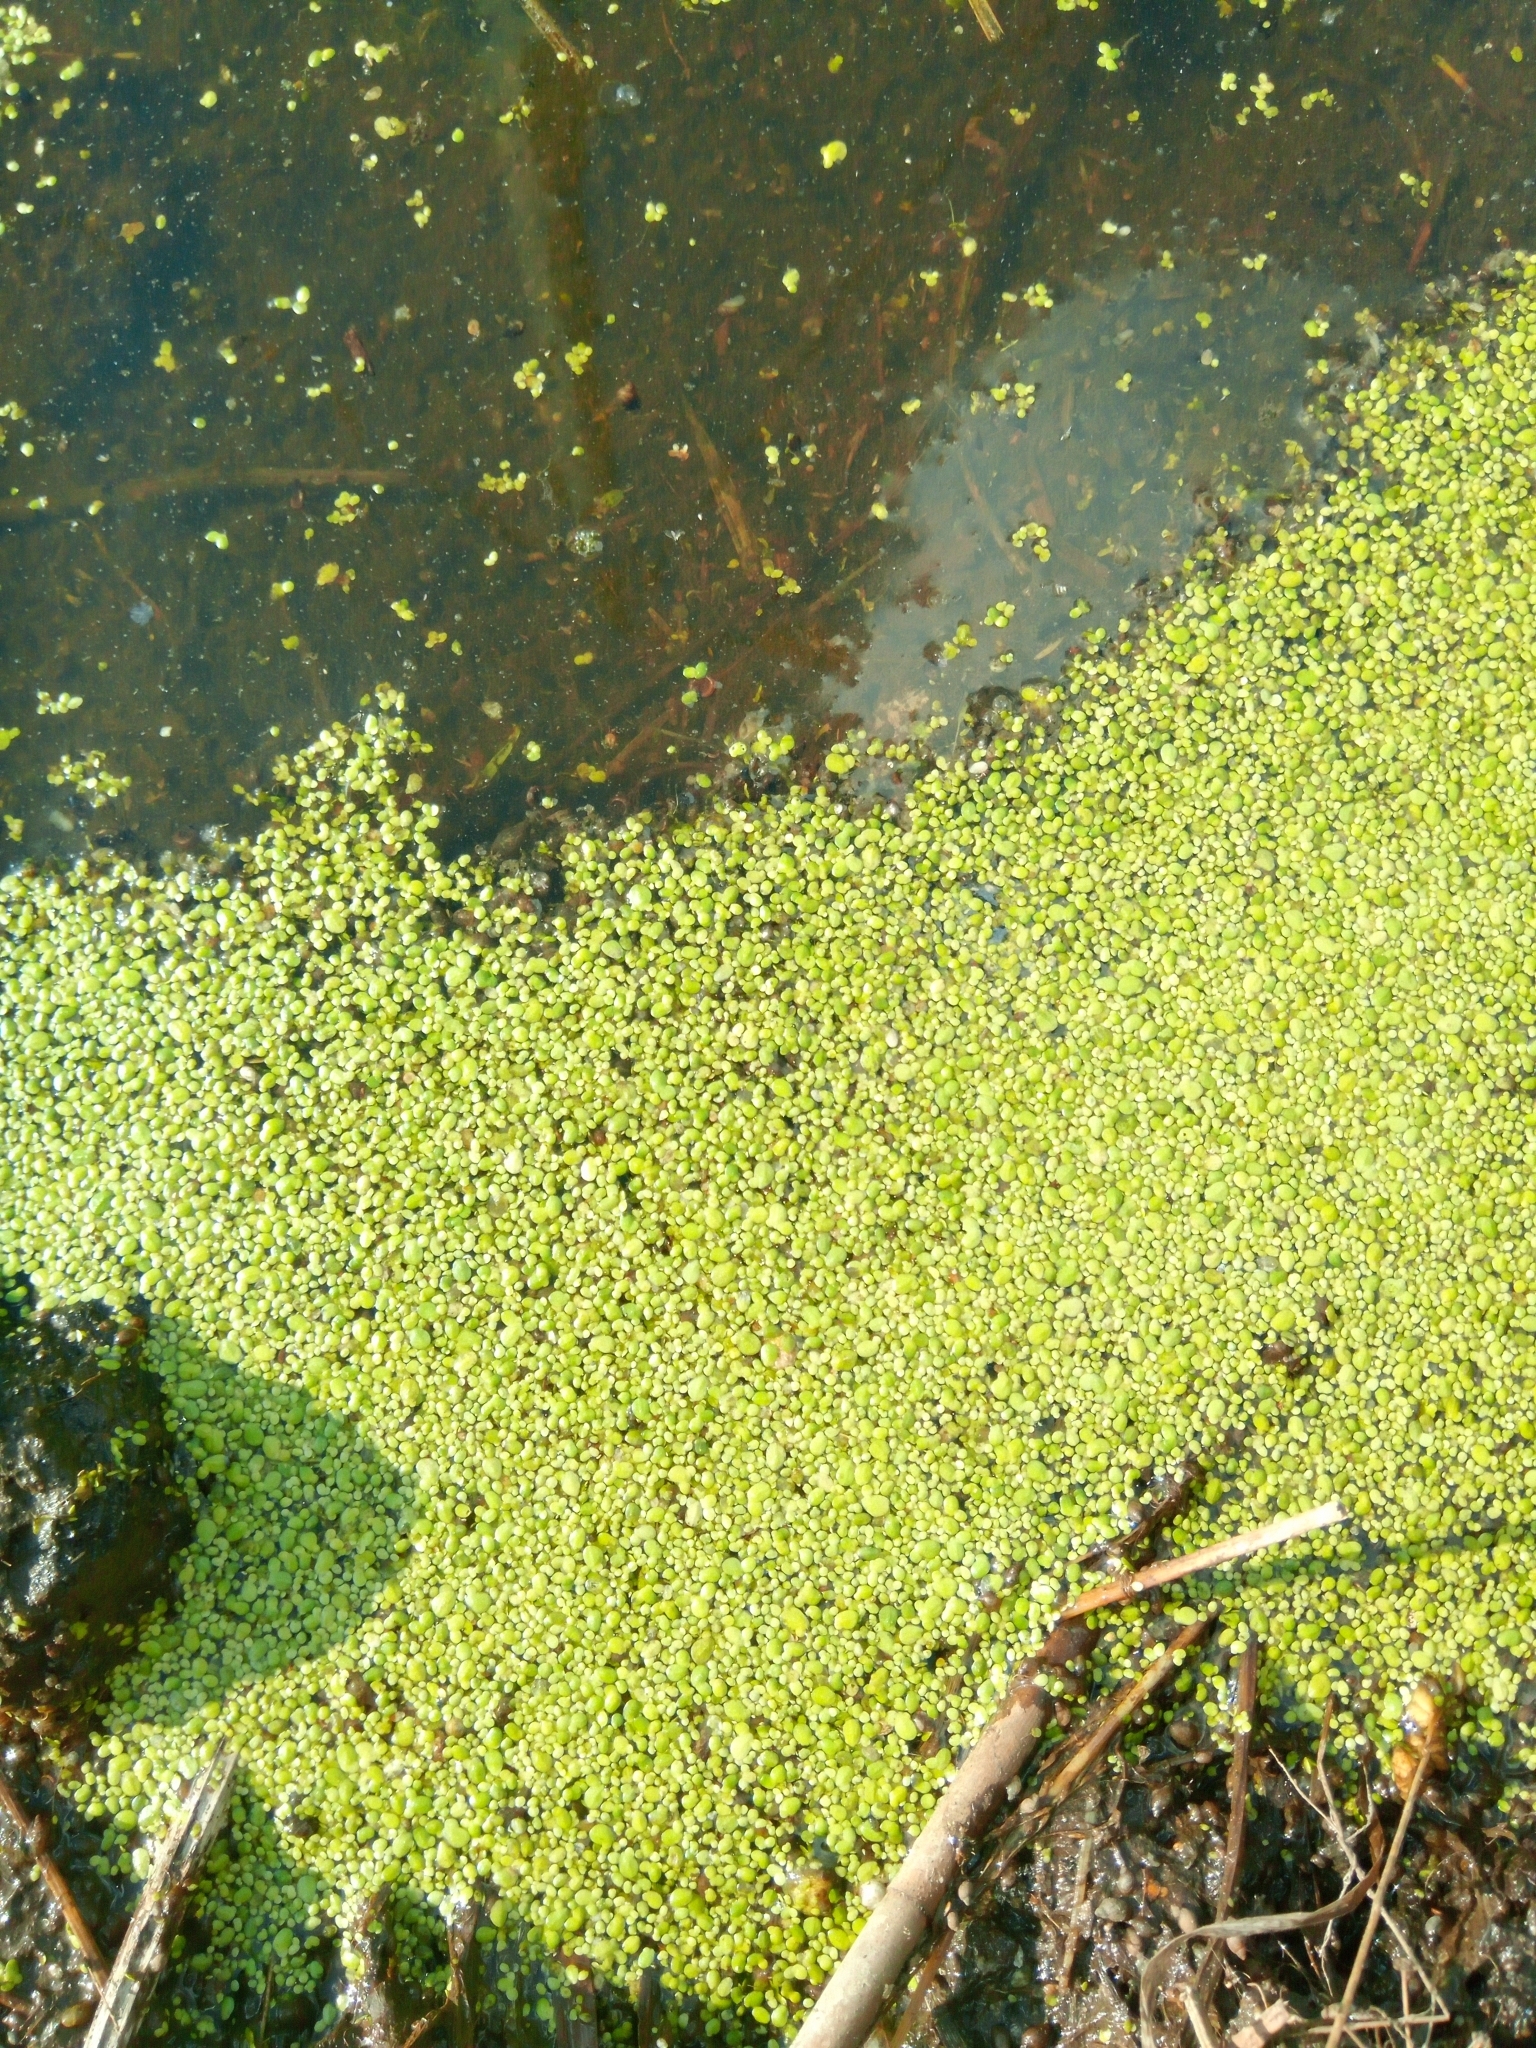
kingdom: Plantae
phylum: Tracheophyta
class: Liliopsida
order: Alismatales
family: Araceae
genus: Lemna
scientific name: Lemna minor
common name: Common duckweed
